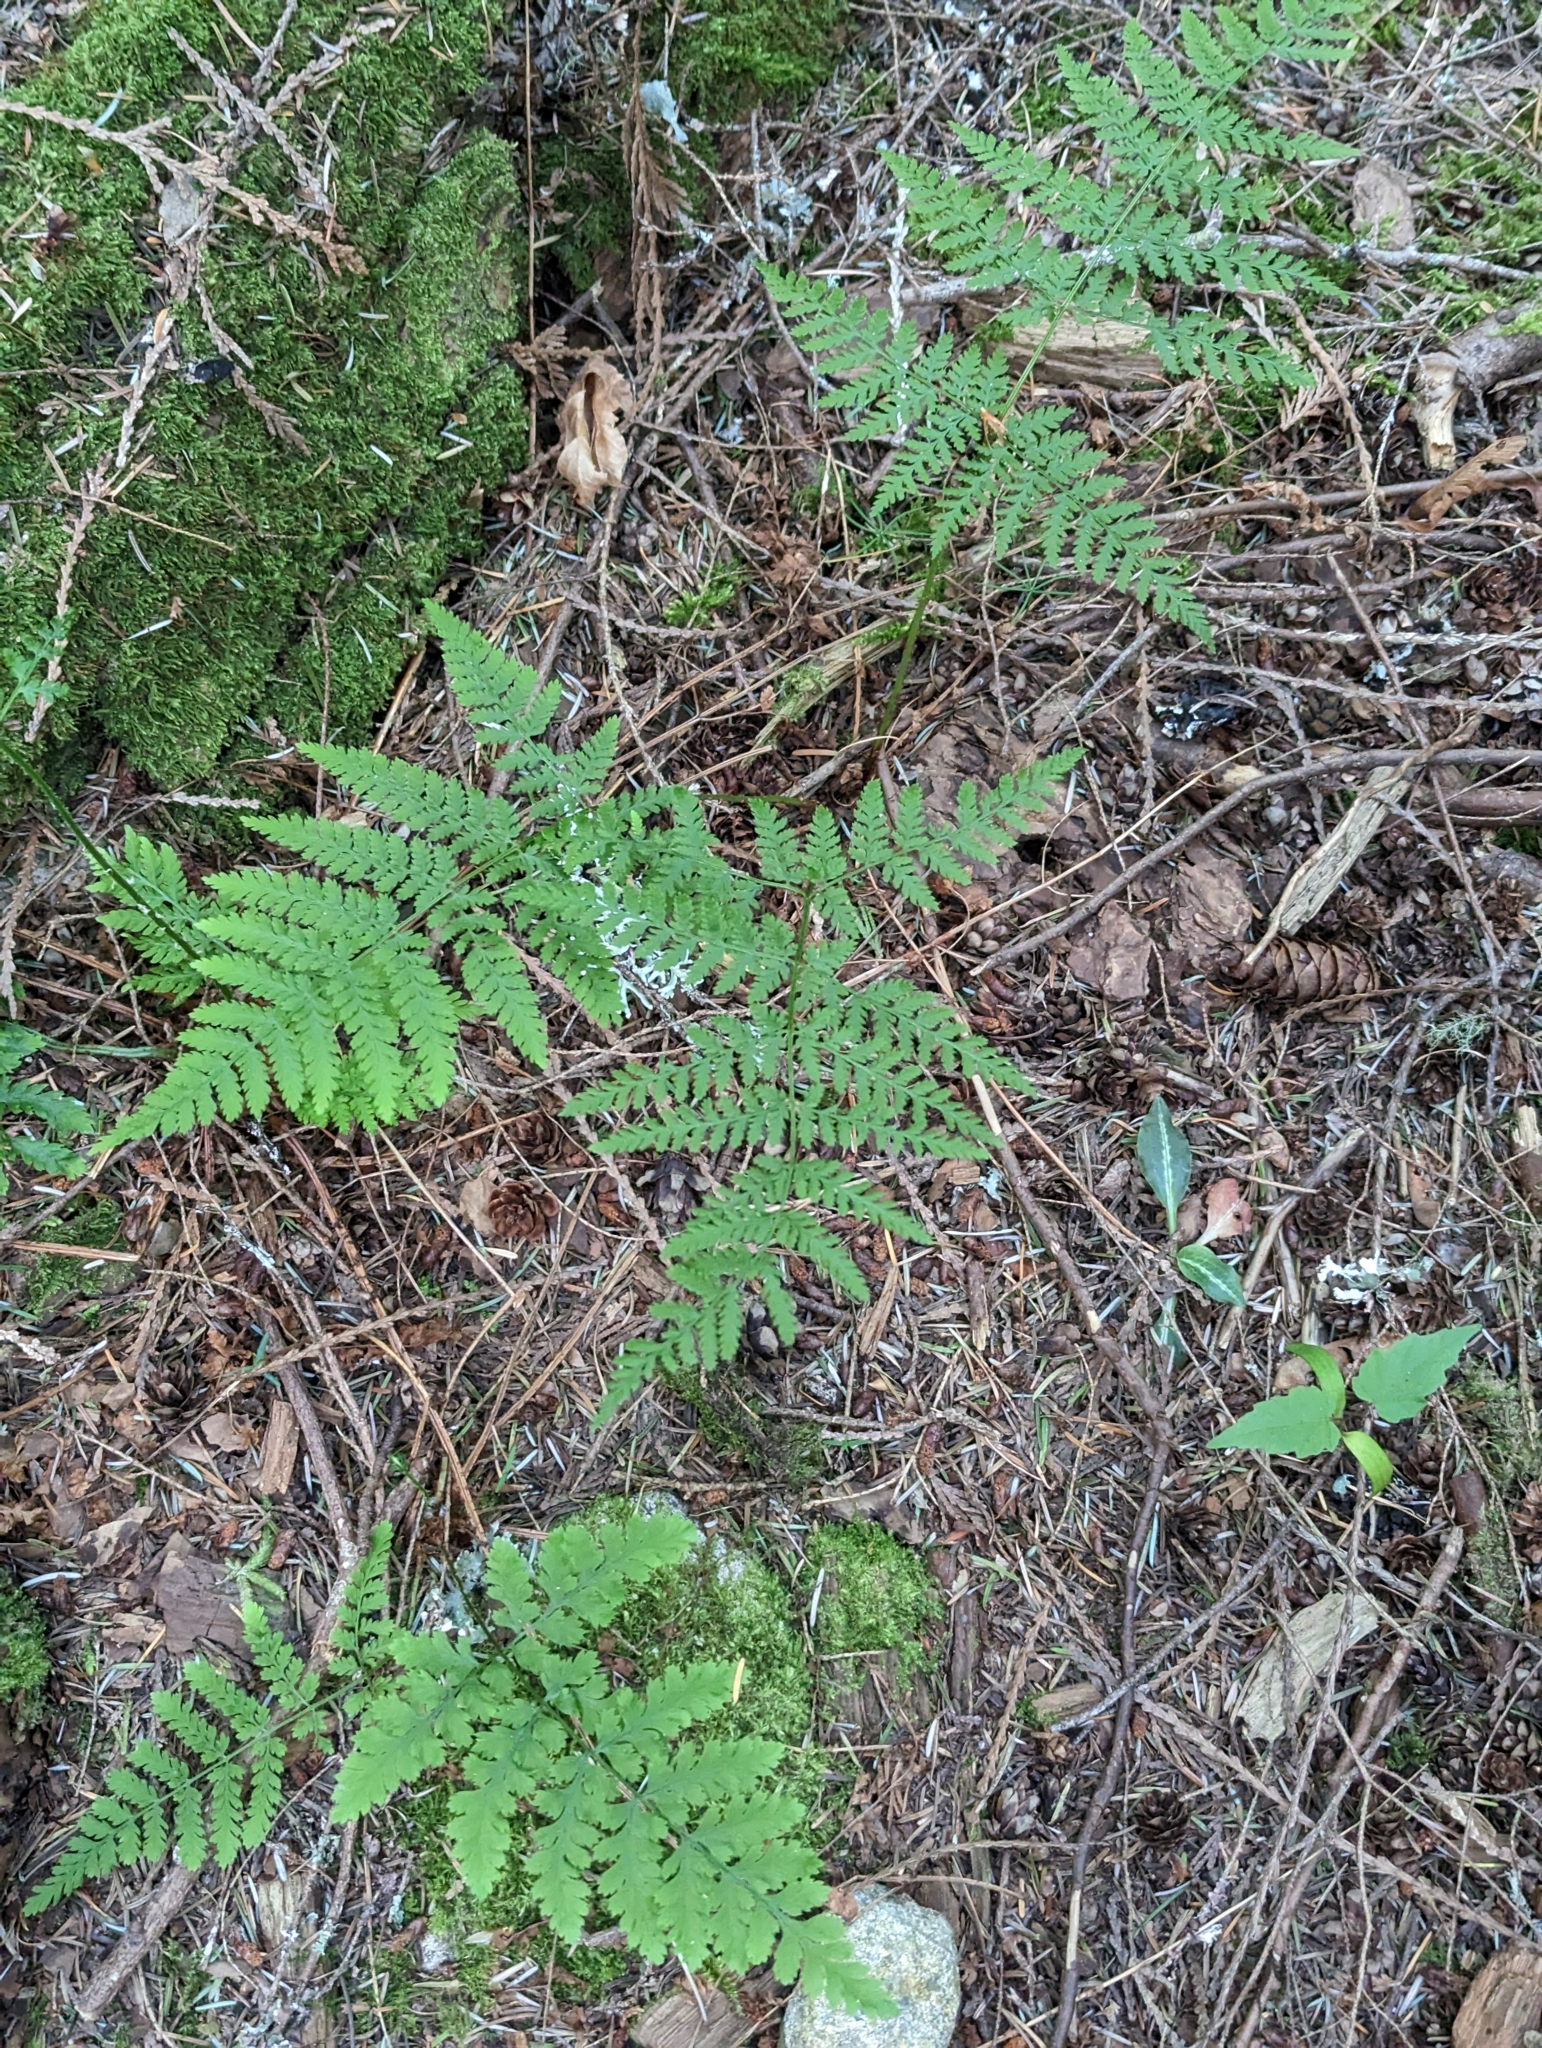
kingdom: Plantae
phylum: Tracheophyta
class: Polypodiopsida
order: Polypodiales
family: Dryopteridaceae
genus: Dryopteris
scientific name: Dryopteris expansa
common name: Northern buckler fern
